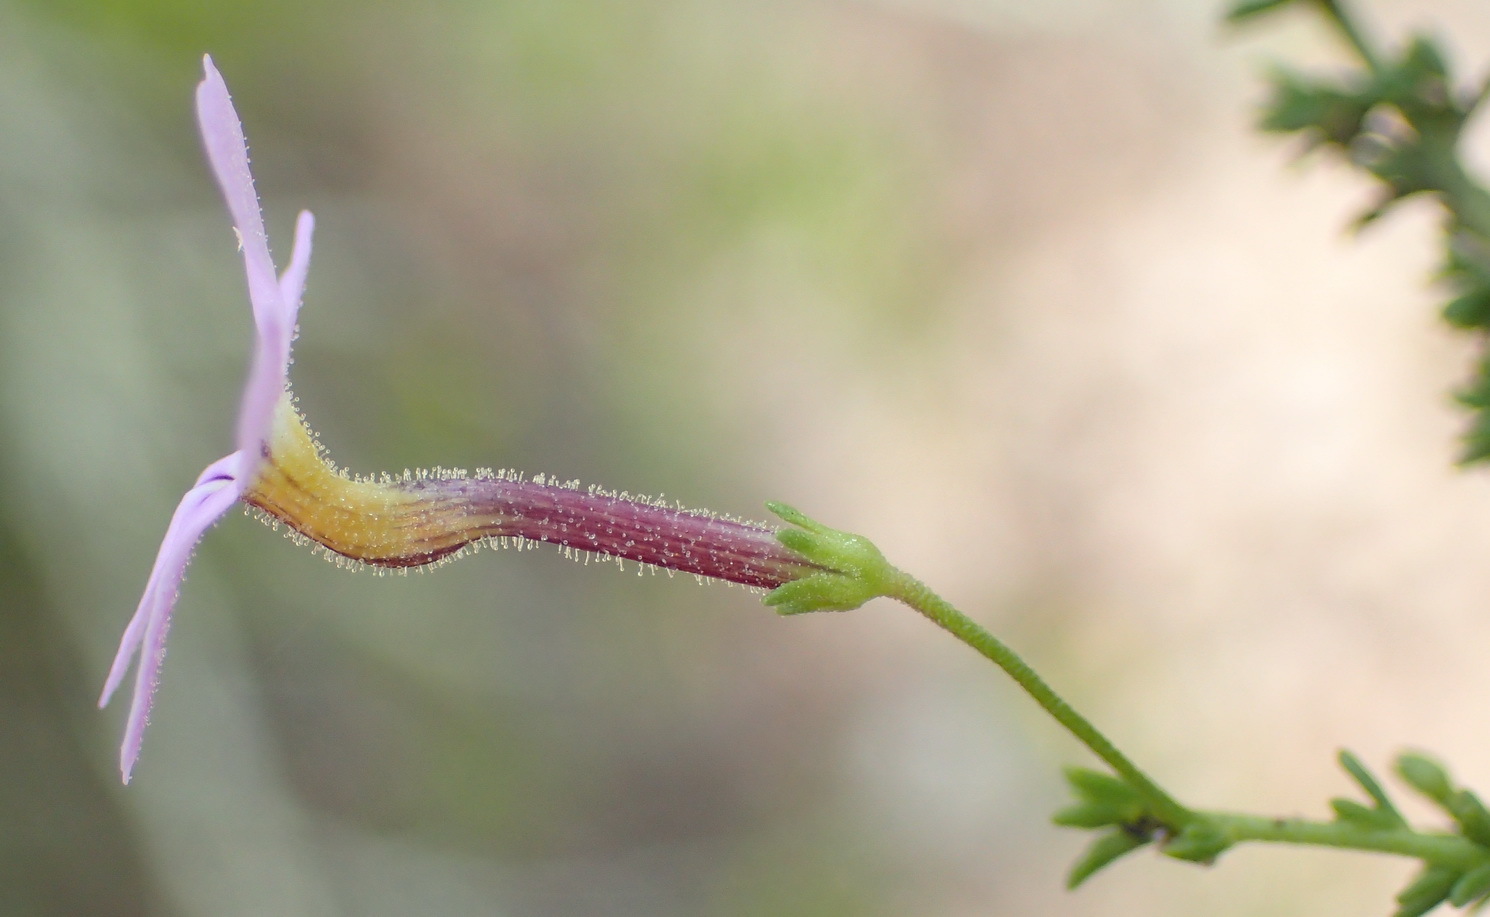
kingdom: Plantae
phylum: Tracheophyta
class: Magnoliopsida
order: Lamiales
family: Scrophulariaceae
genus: Jamesbrittenia
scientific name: Jamesbrittenia aspalathoides
